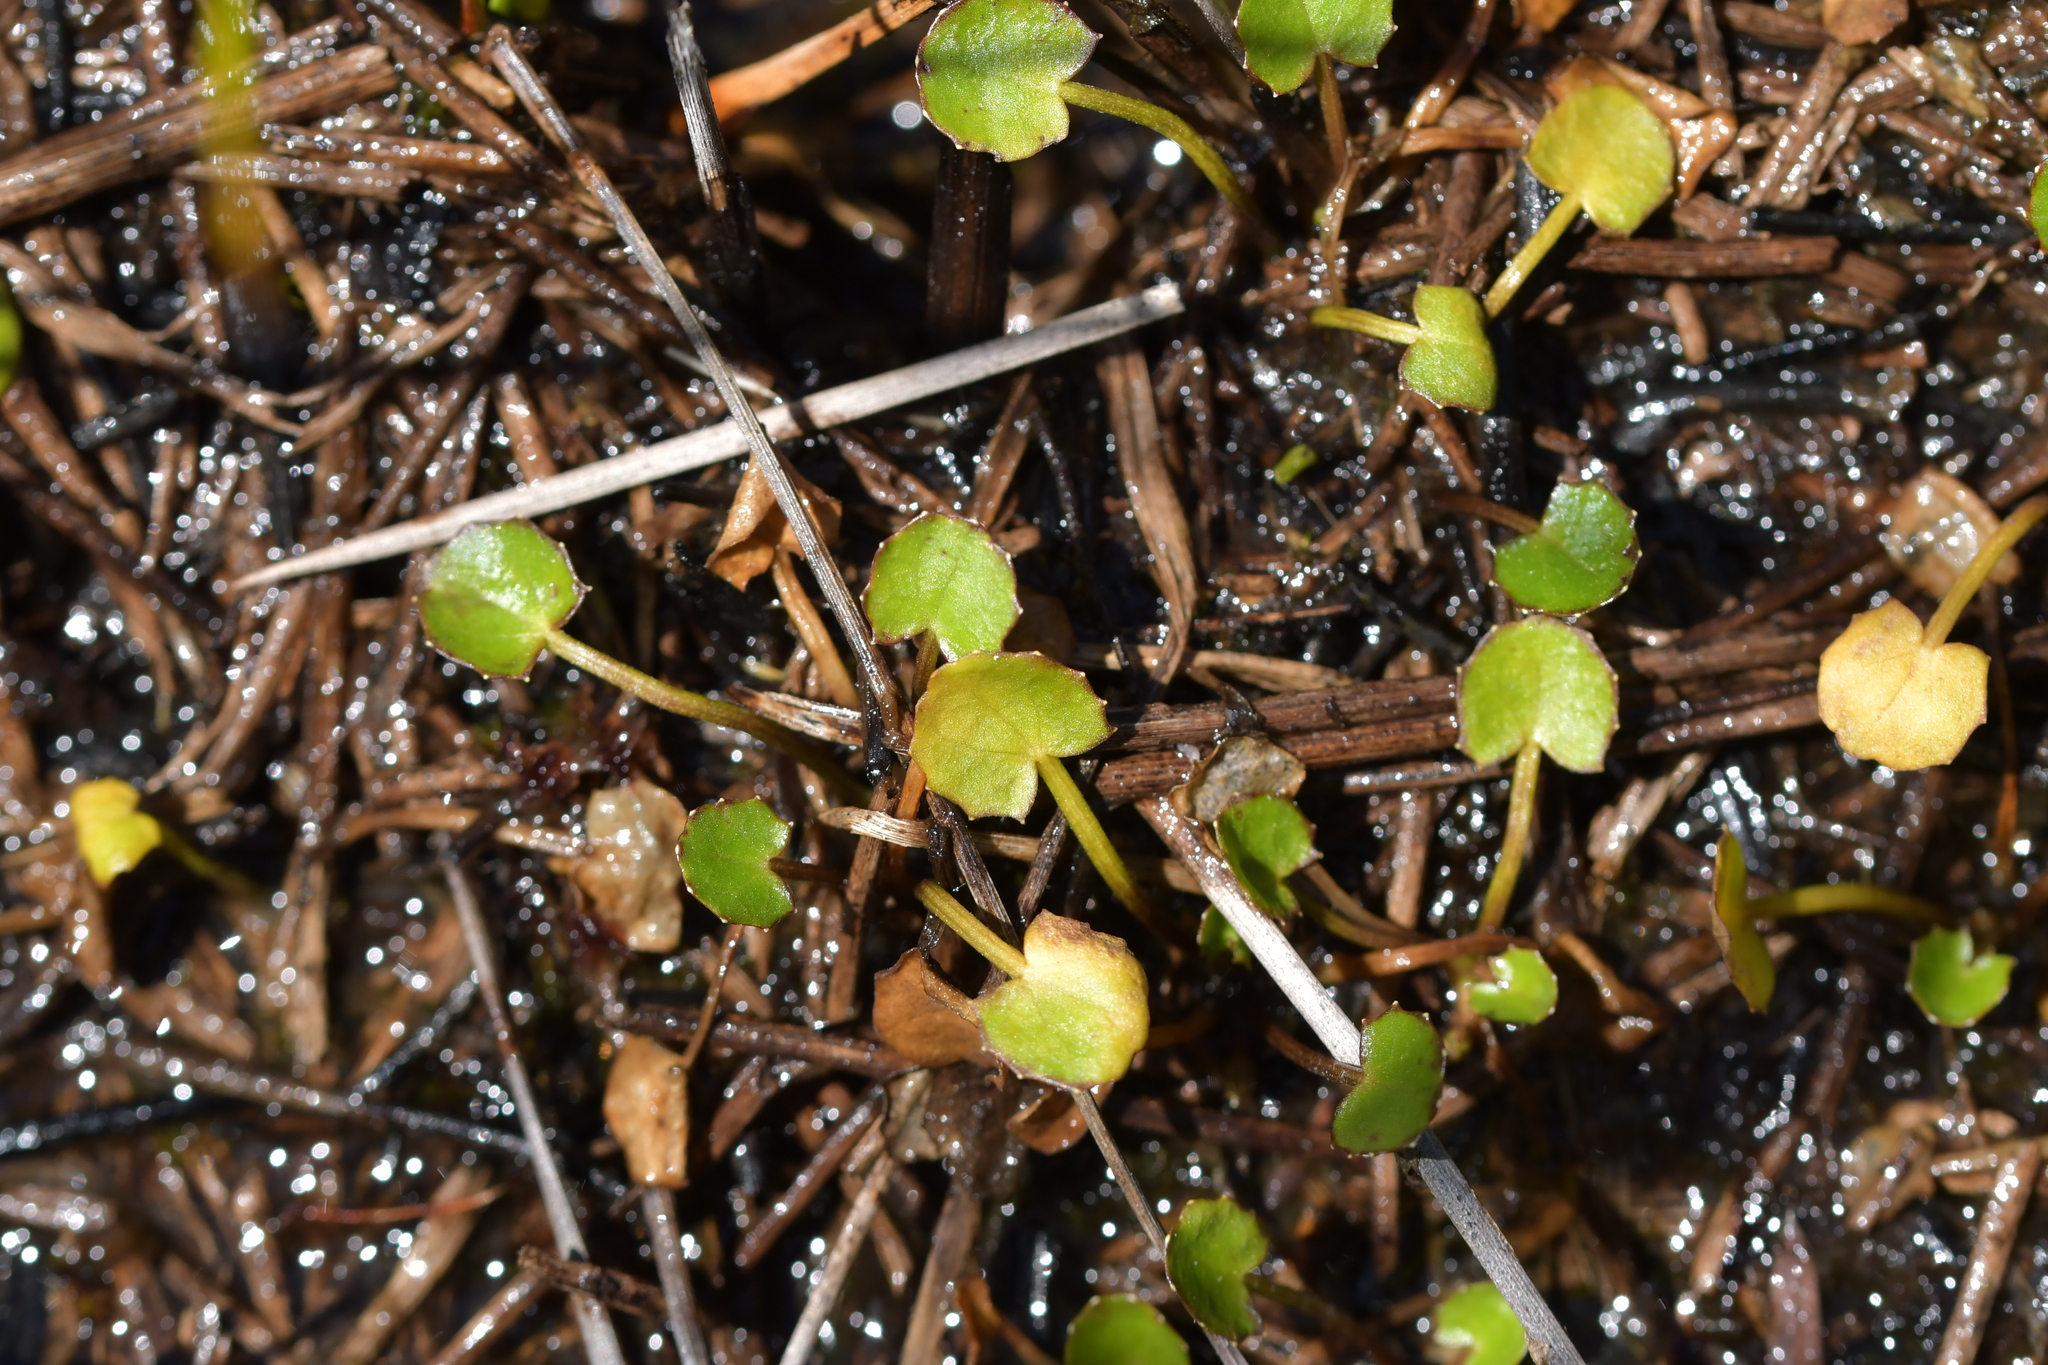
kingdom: Plantae
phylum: Tracheophyta
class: Magnoliopsida
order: Apiales
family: Apiaceae
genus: Centella
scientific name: Centella uniflora
